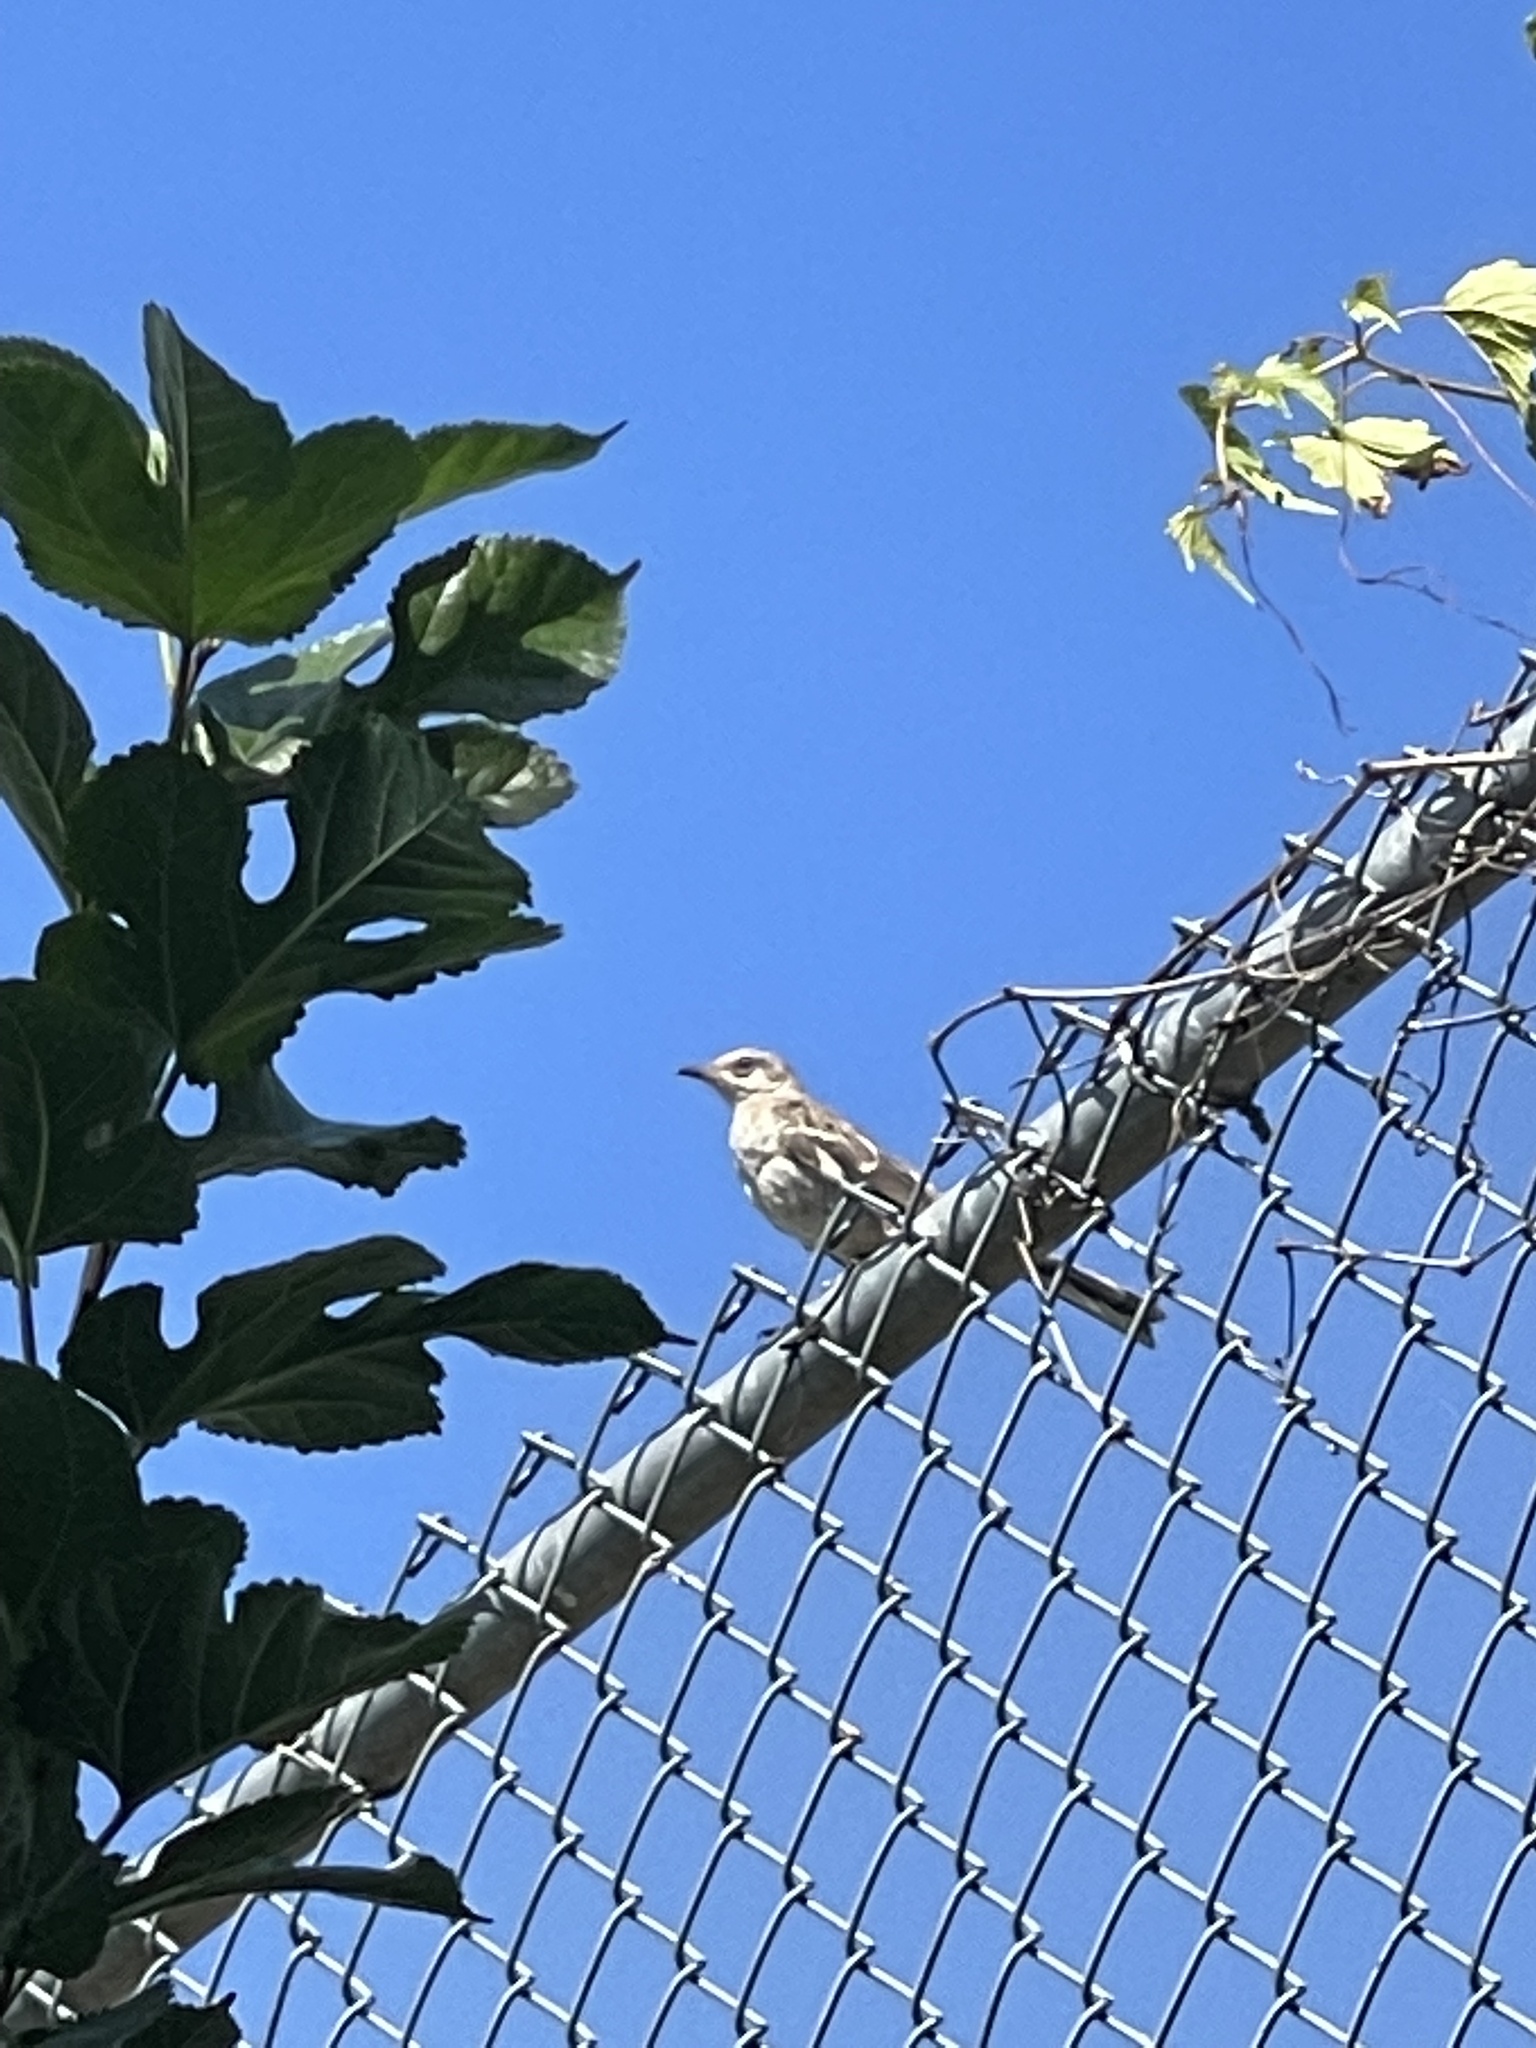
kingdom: Animalia
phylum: Chordata
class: Aves
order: Passeriformes
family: Mimidae
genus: Mimus
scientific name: Mimus polyglottos
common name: Northern mockingbird
